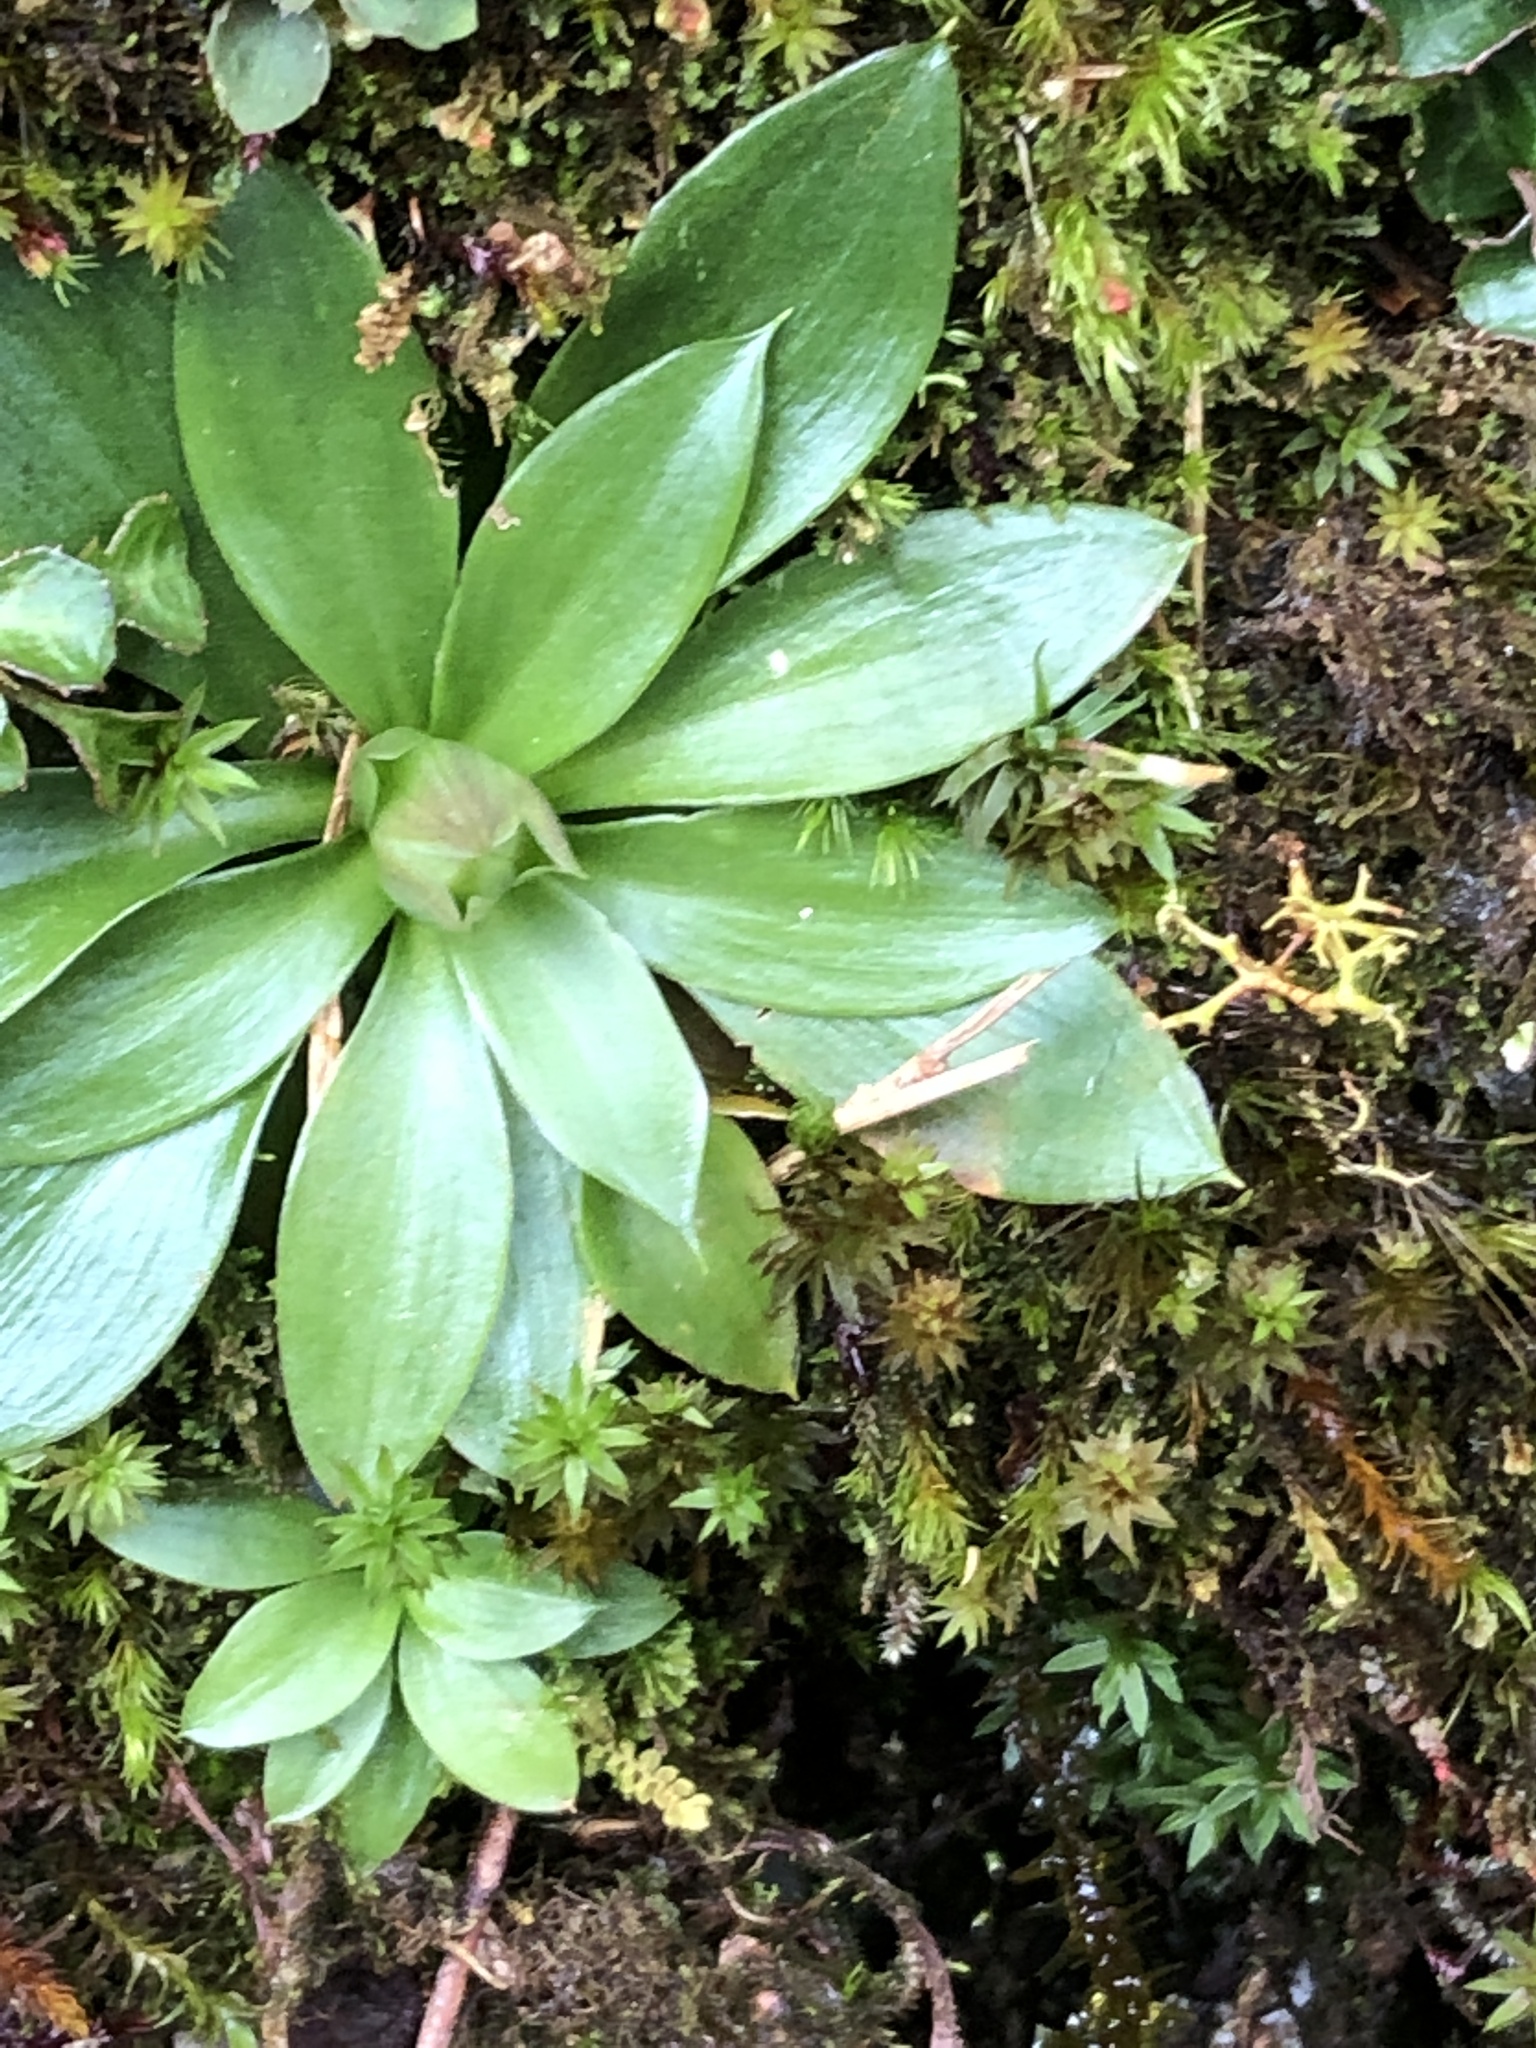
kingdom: Plantae
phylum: Tracheophyta
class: Liliopsida
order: Liliales
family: Melanthiaceae
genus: Helonias
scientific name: Helonias umbellata
